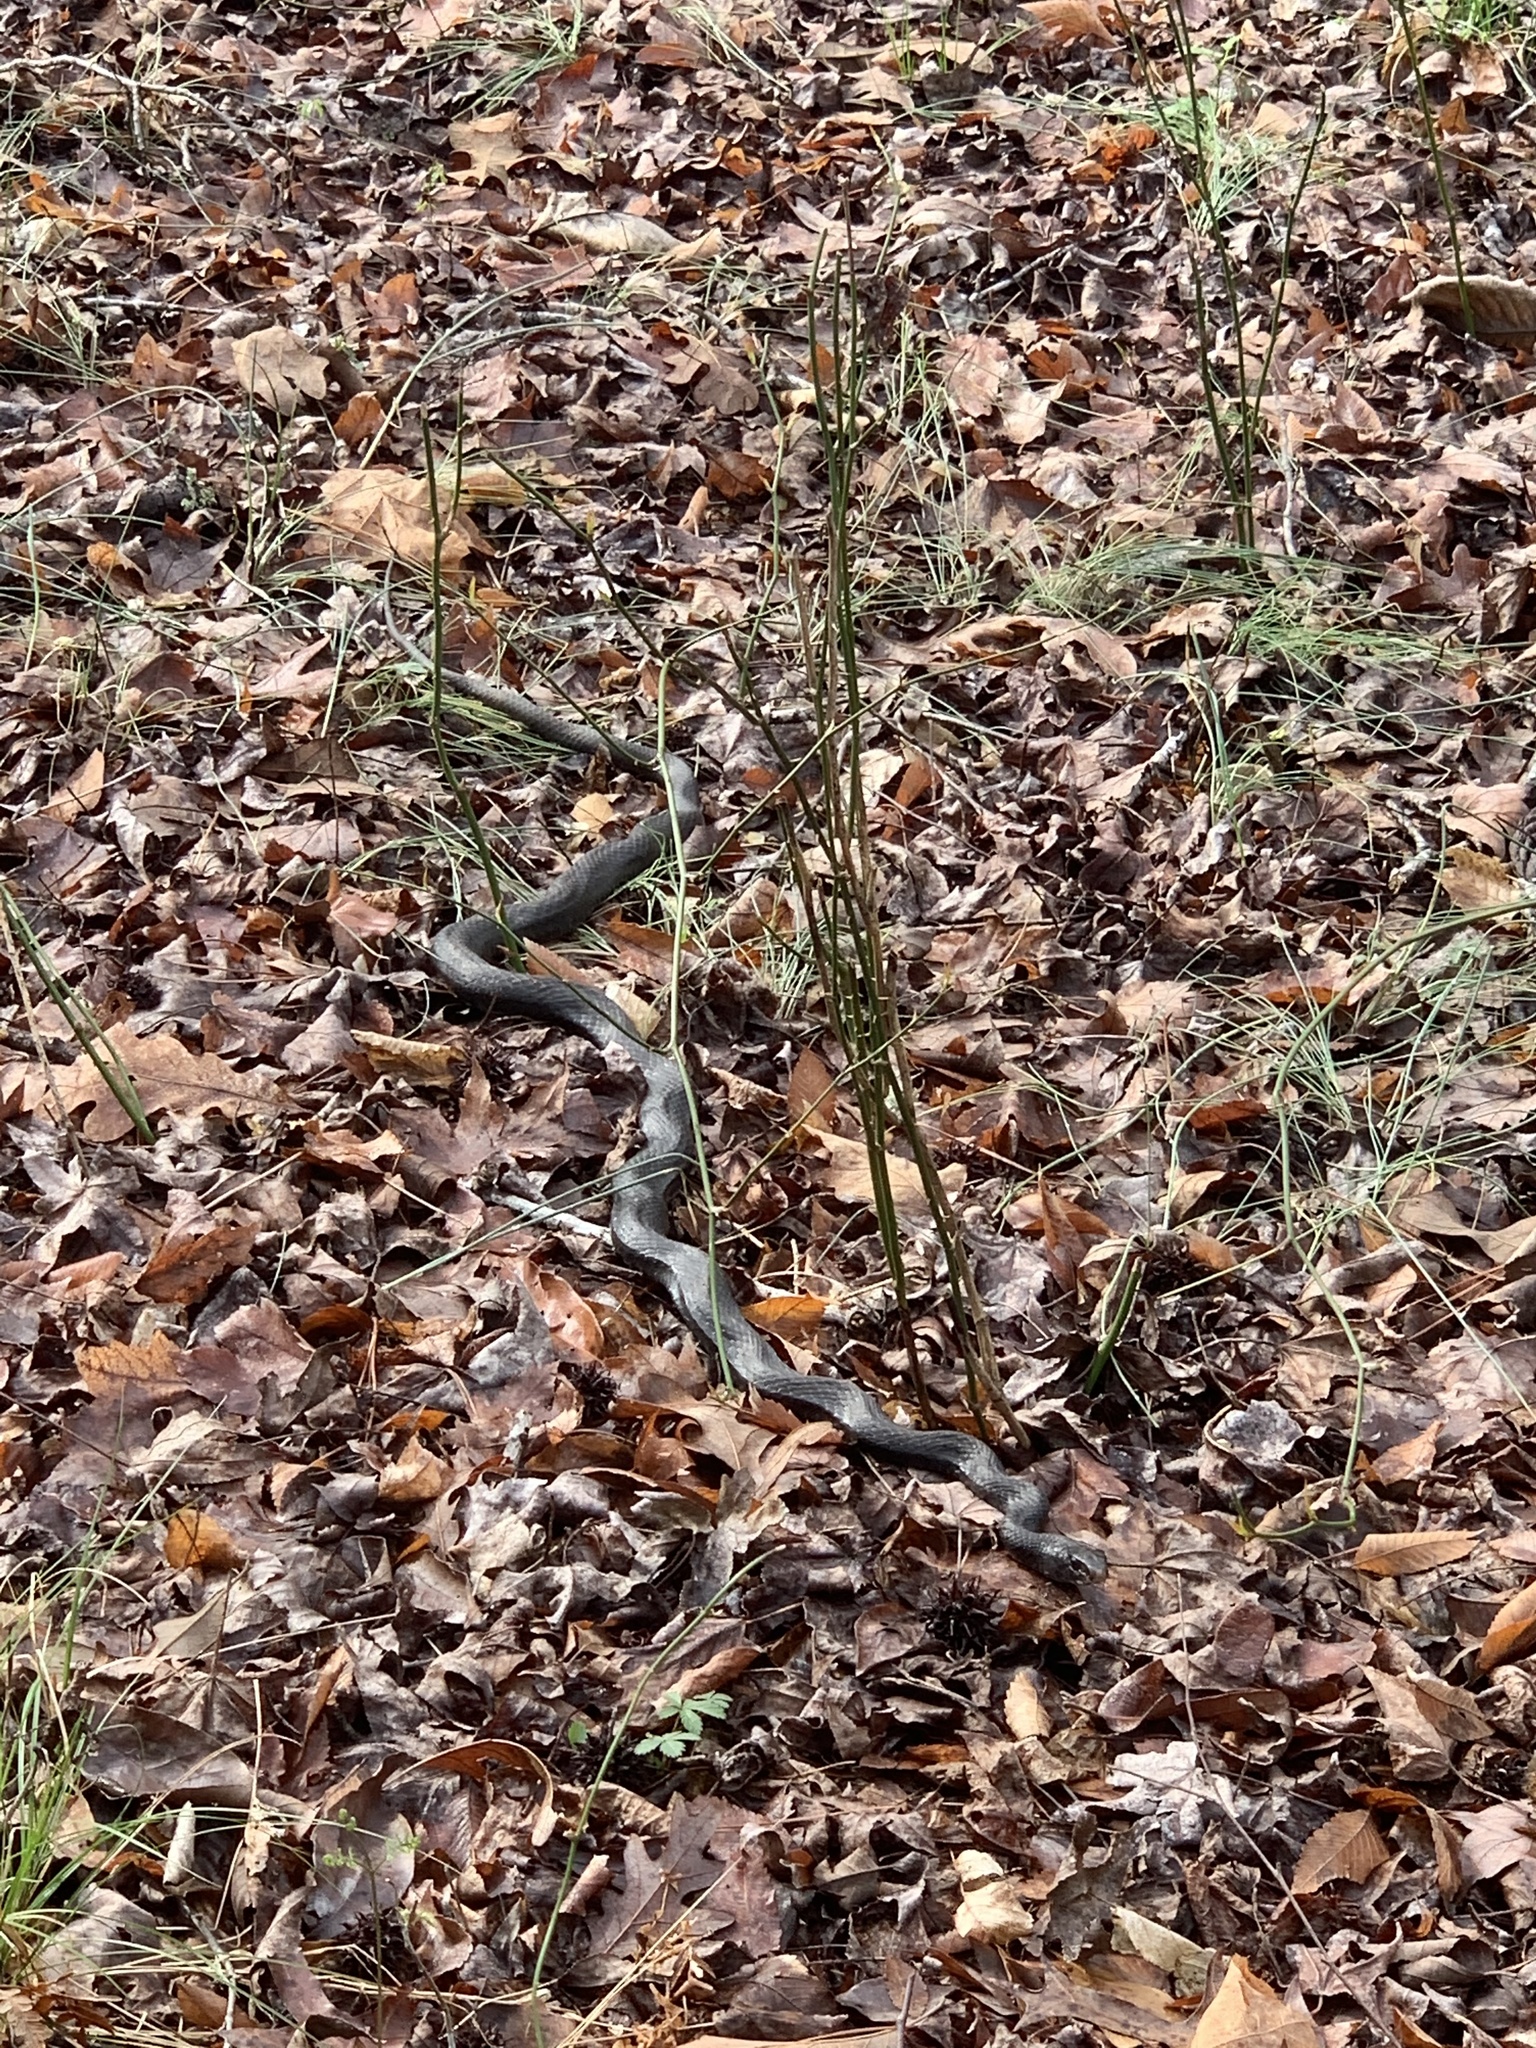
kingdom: Animalia
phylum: Chordata
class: Squamata
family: Colubridae
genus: Coluber
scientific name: Coluber constrictor
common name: Eastern racer
